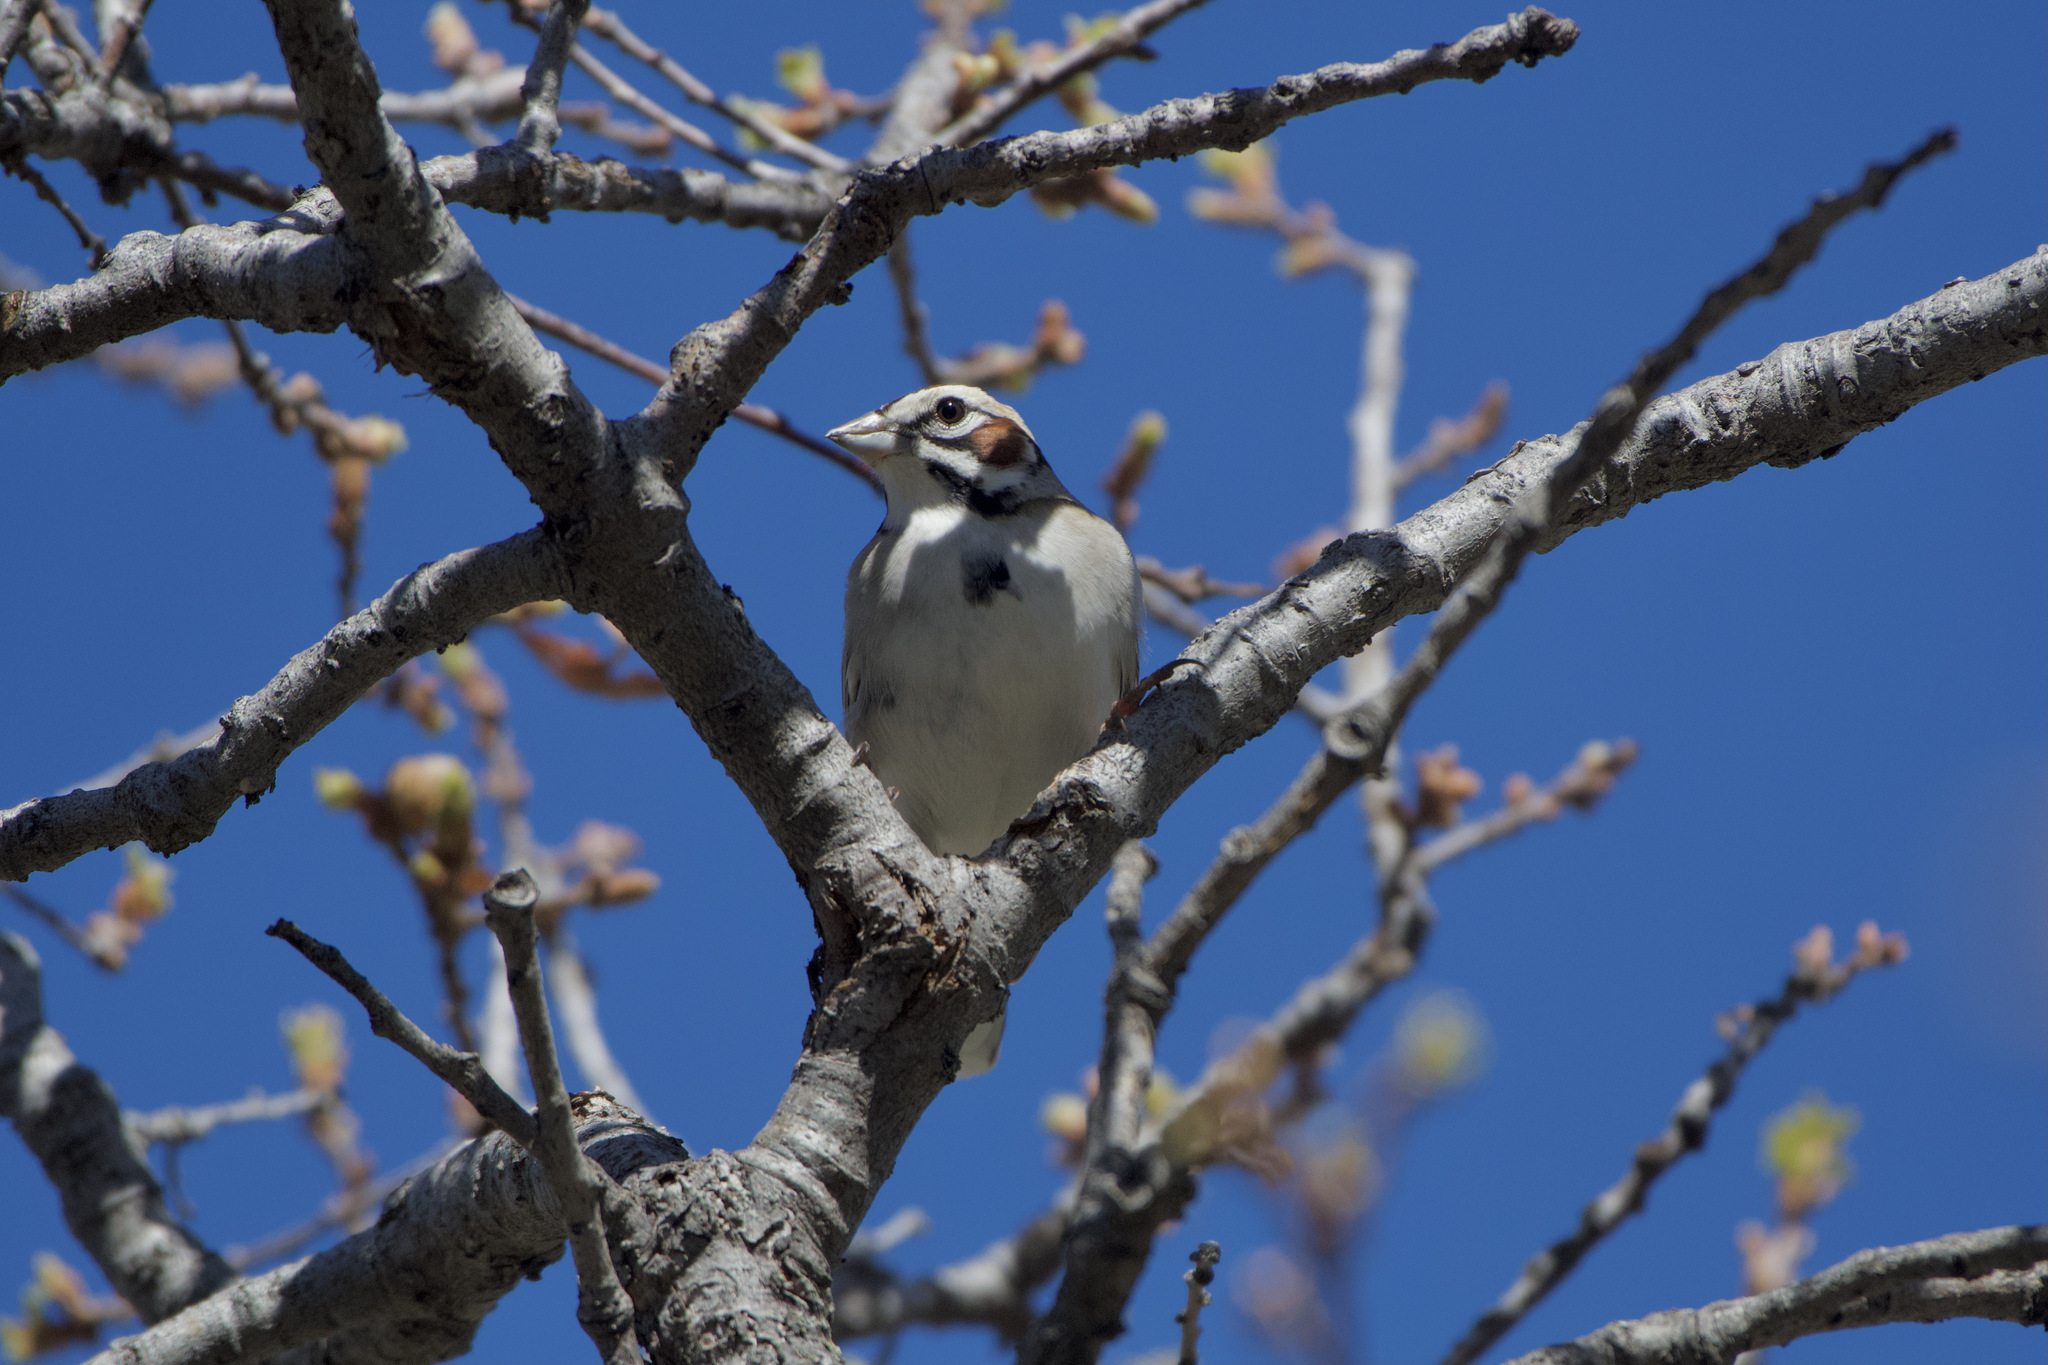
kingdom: Animalia
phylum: Chordata
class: Aves
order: Passeriformes
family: Passerellidae
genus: Chondestes
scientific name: Chondestes grammacus
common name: Lark sparrow
